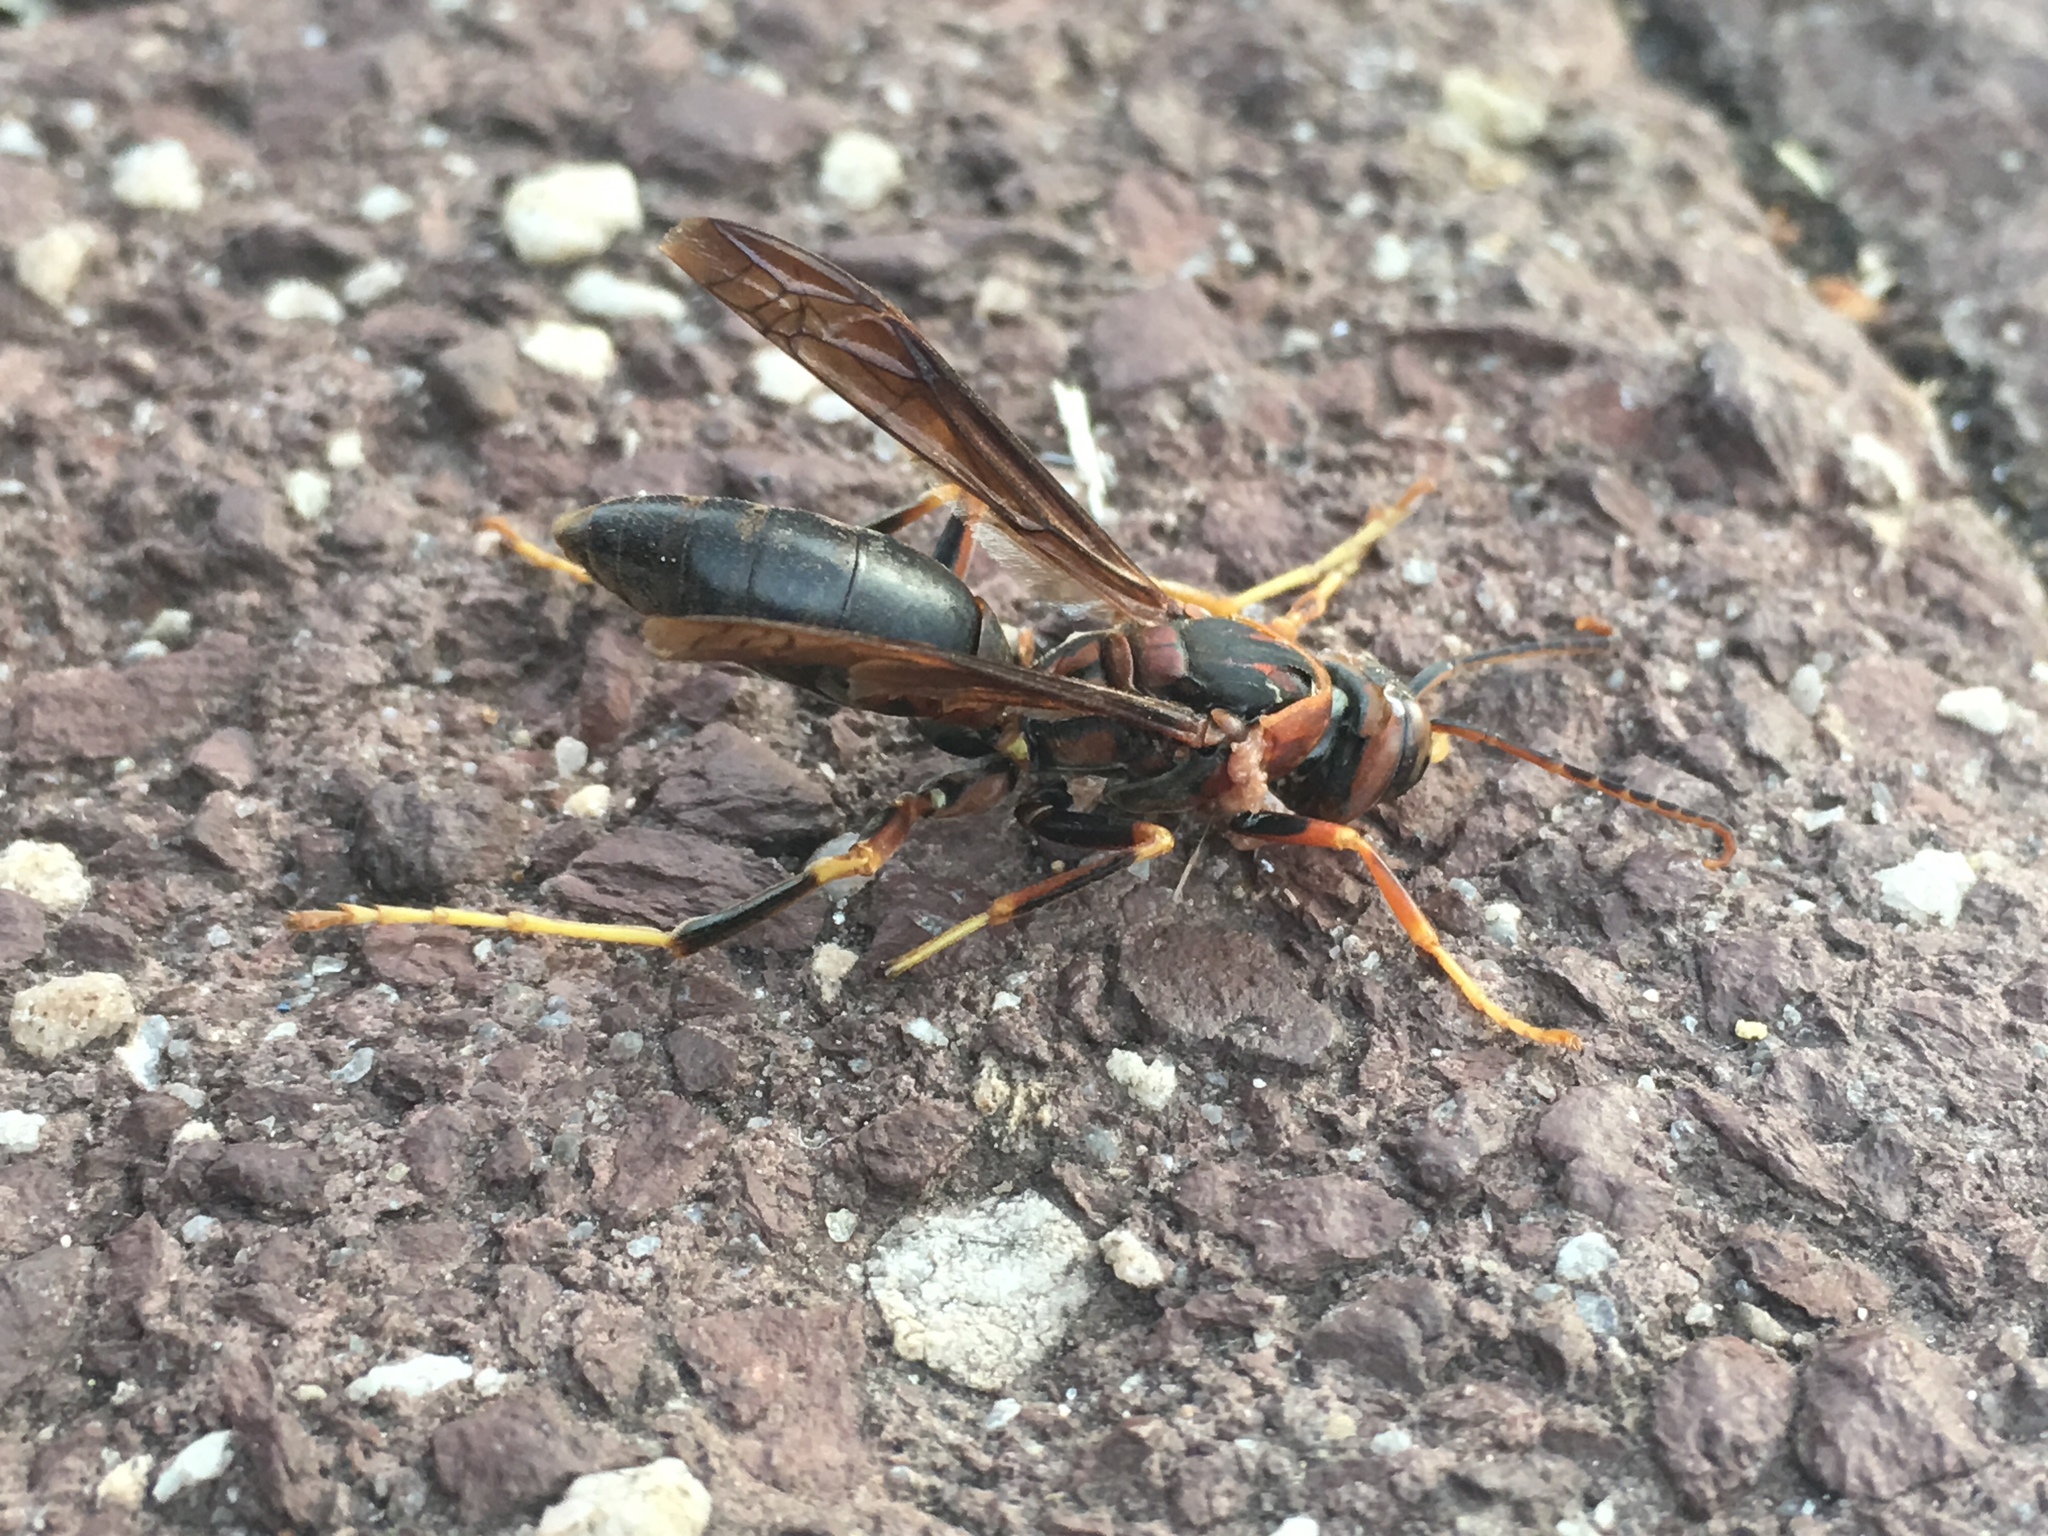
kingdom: Animalia
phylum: Arthropoda
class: Insecta
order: Hymenoptera
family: Eumenidae
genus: Polistes
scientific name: Polistes metricus
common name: Metric paper wasp
